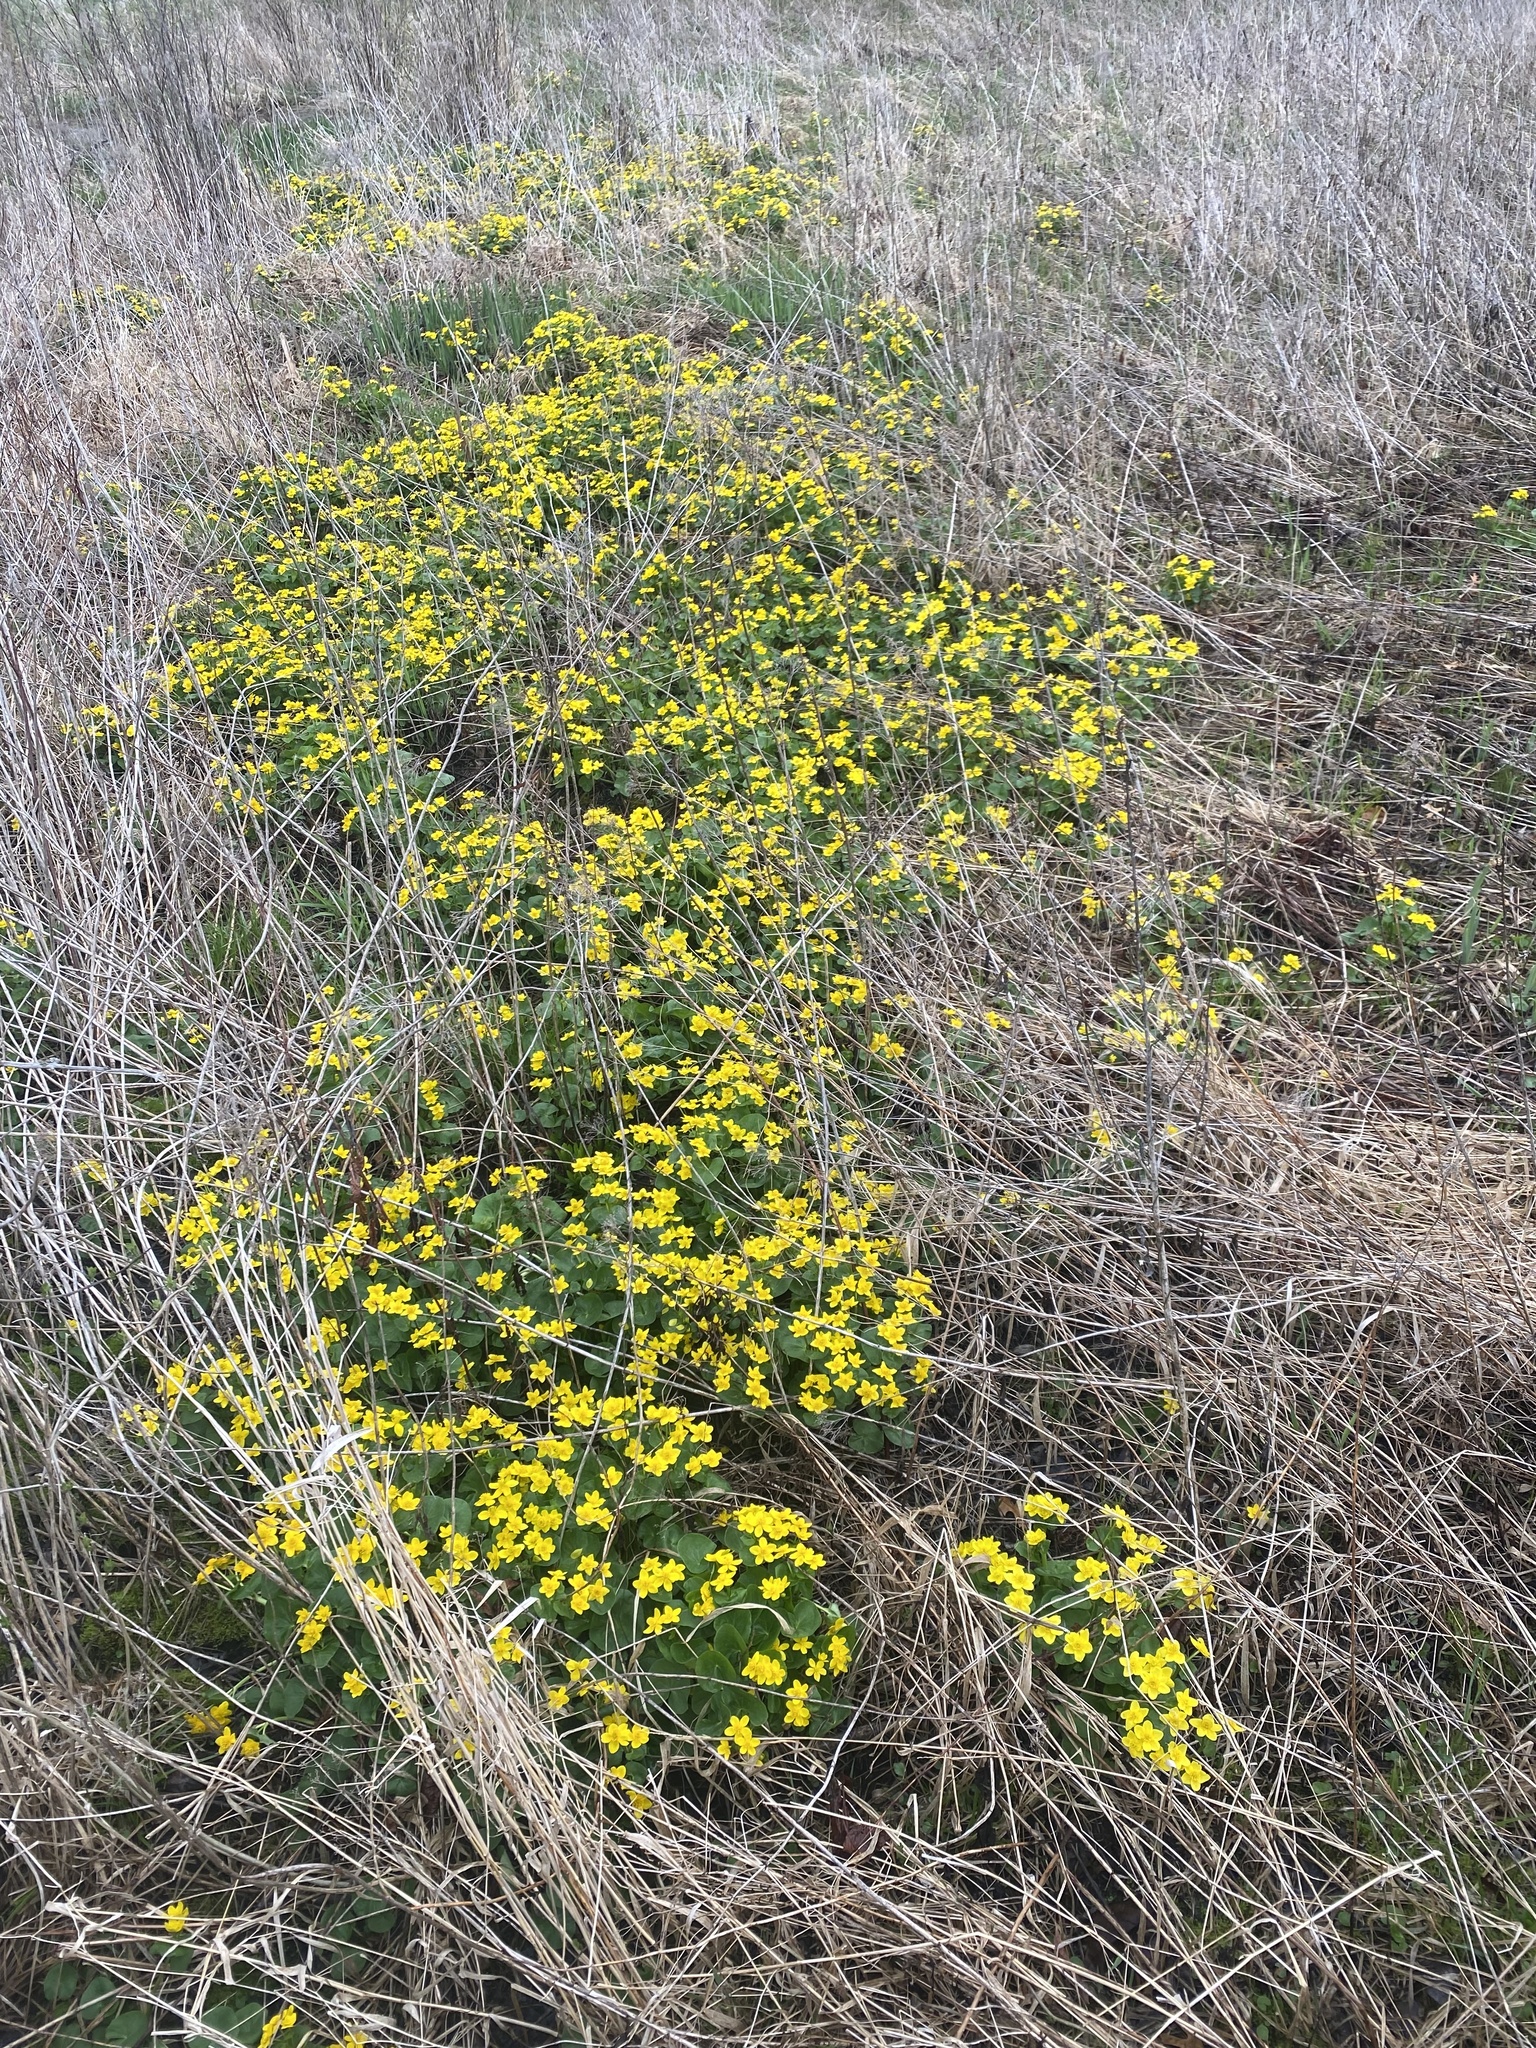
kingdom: Plantae
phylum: Tracheophyta
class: Magnoliopsida
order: Ranunculales
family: Ranunculaceae
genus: Caltha
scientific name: Caltha palustris
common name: Marsh marigold
